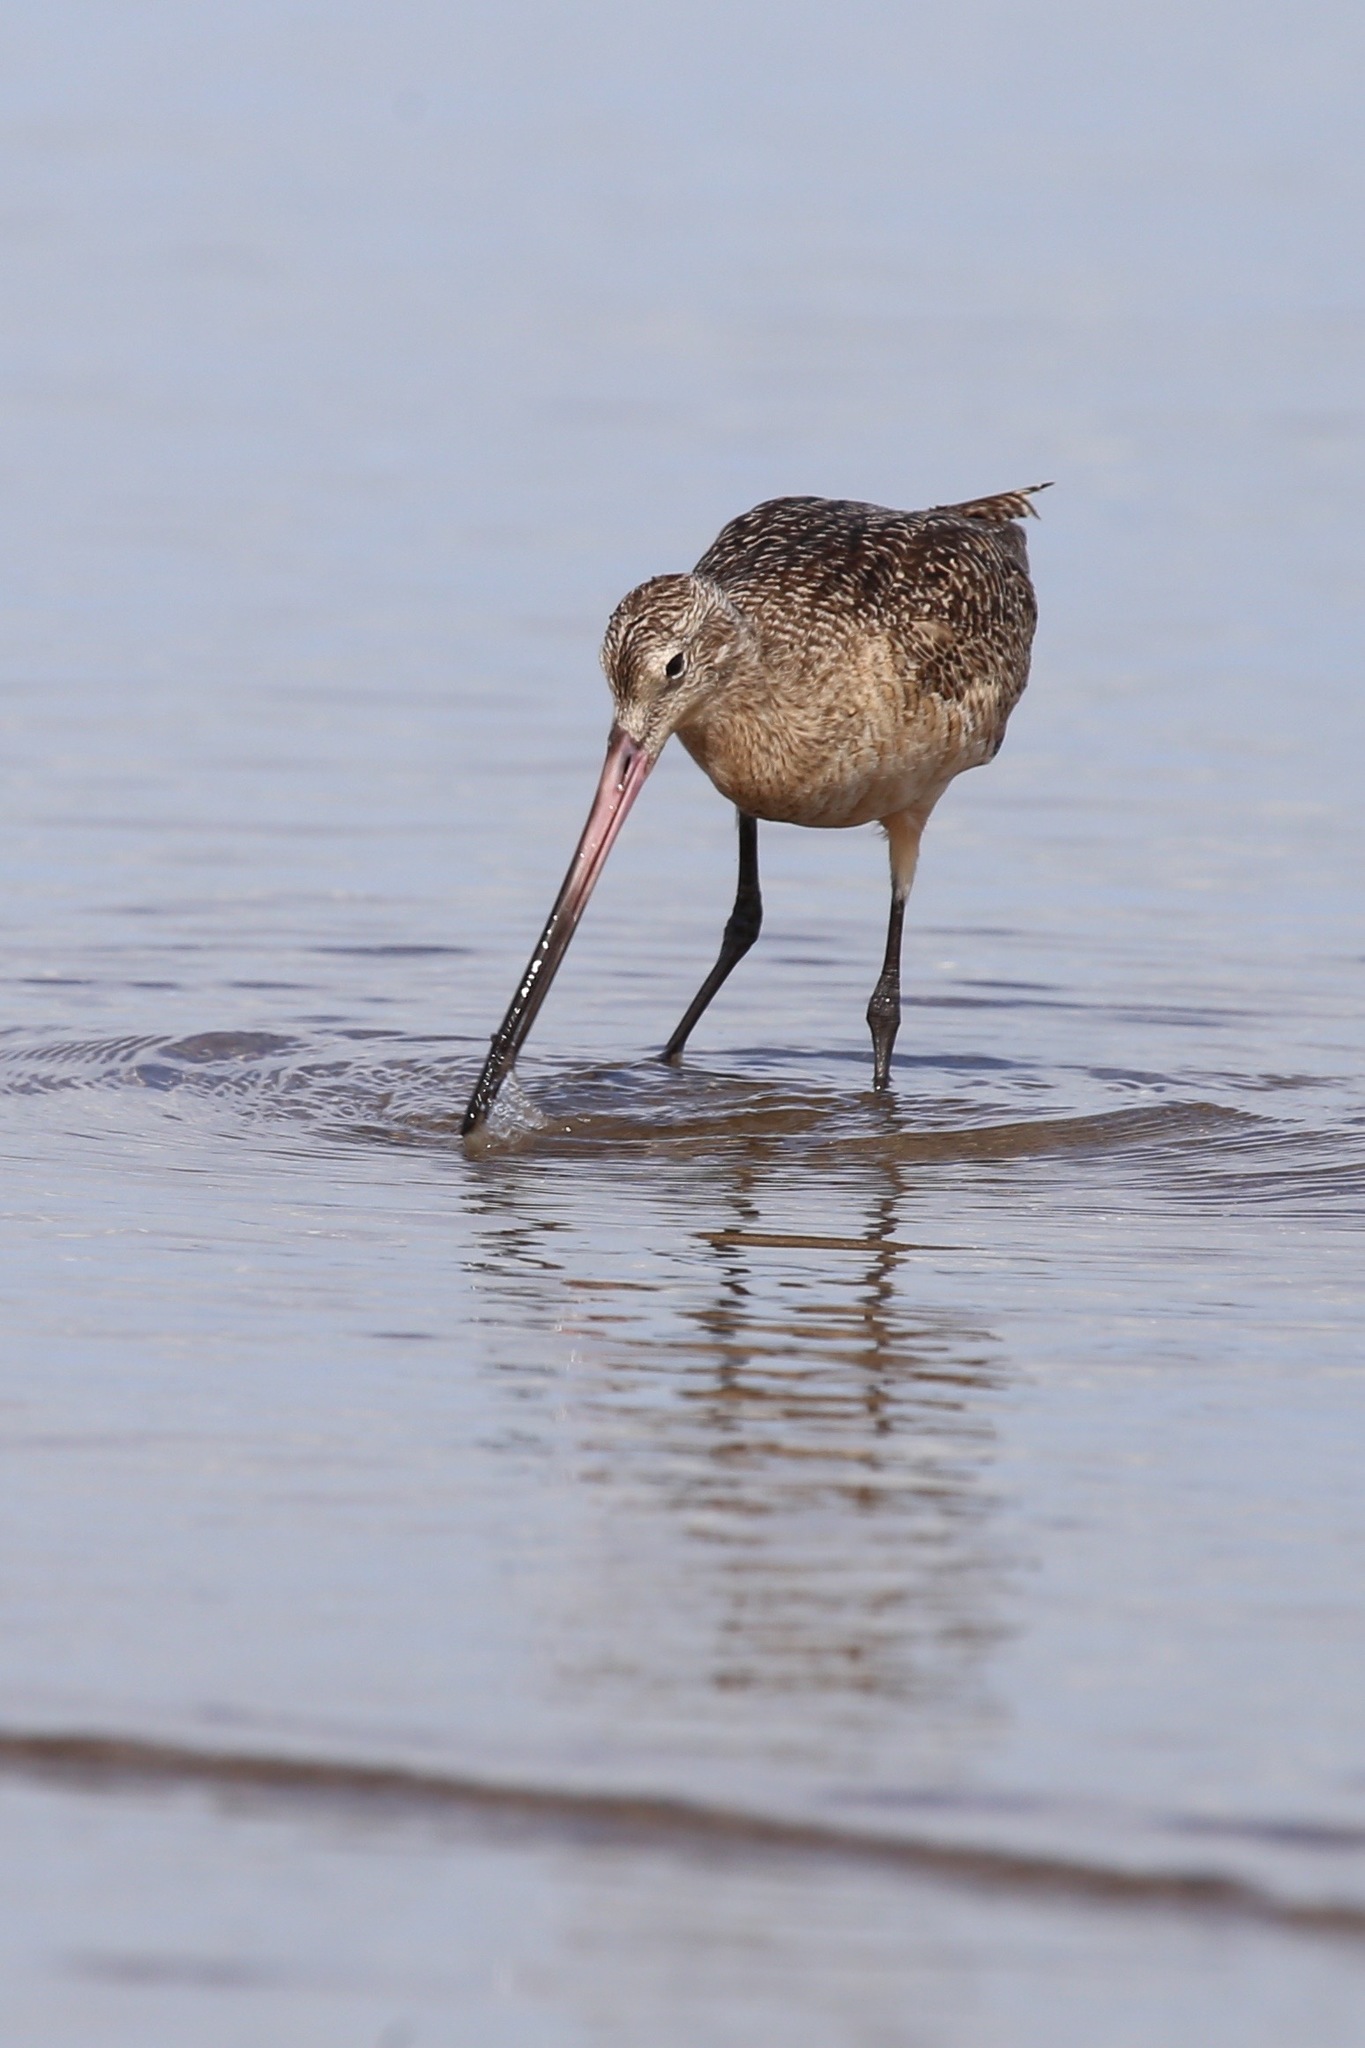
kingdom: Animalia
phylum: Chordata
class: Aves
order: Charadriiformes
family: Scolopacidae
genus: Limosa
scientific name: Limosa fedoa
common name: Marbled godwit
